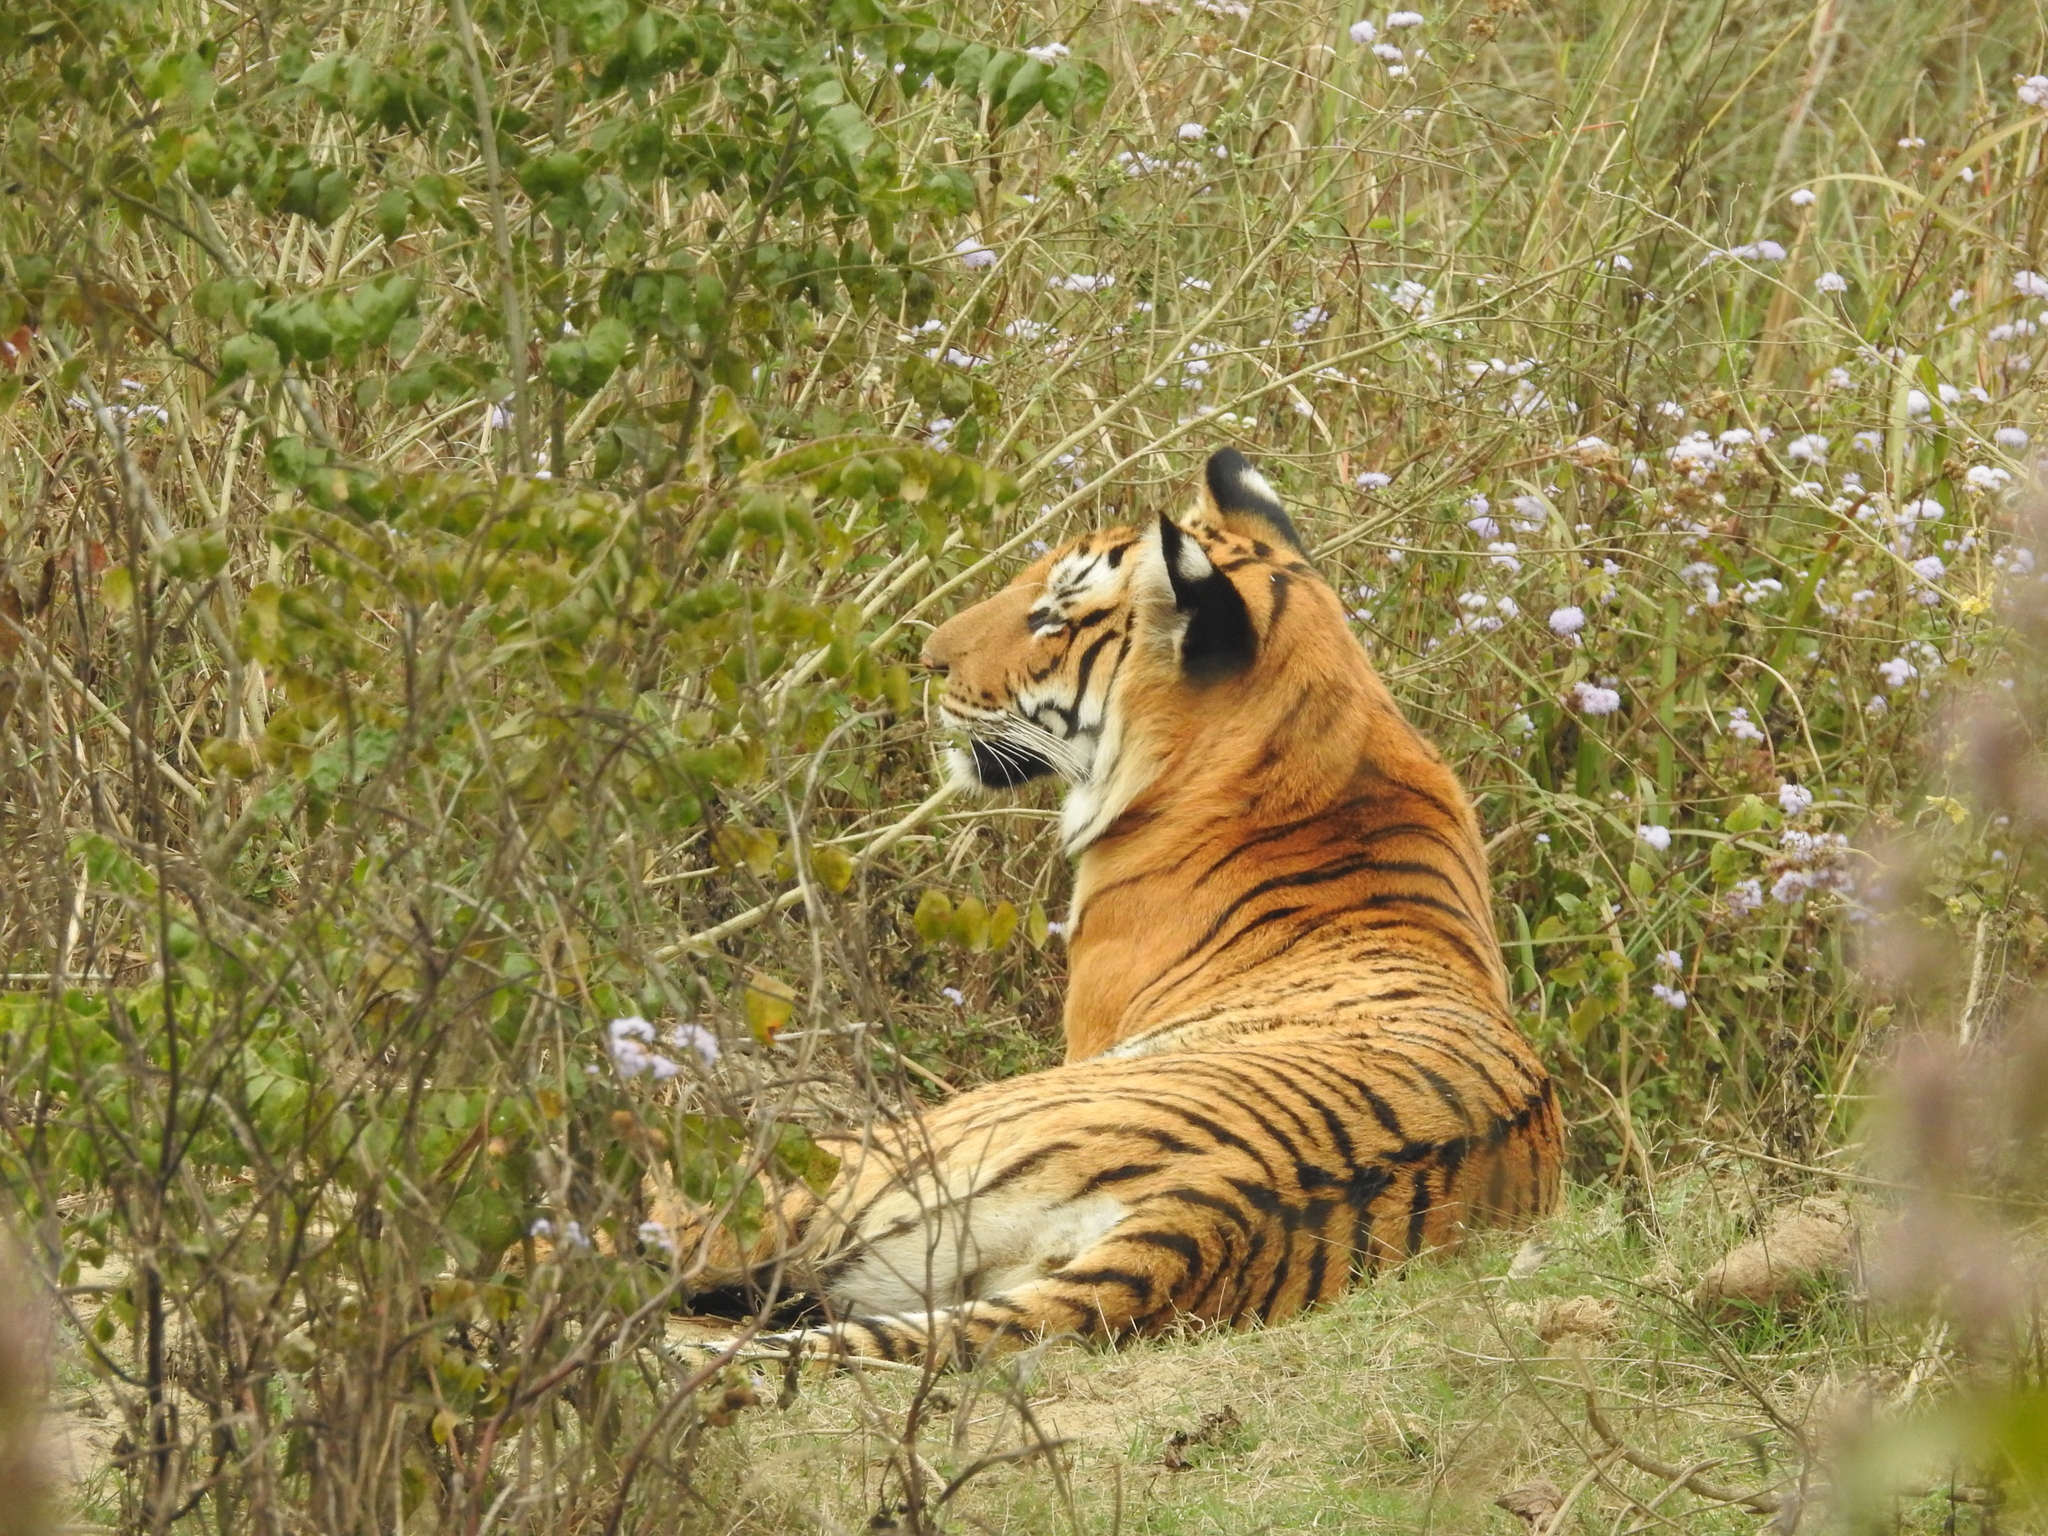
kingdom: Animalia
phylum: Chordata
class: Mammalia
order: Carnivora
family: Felidae
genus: Panthera
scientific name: Panthera tigris
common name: Tiger
